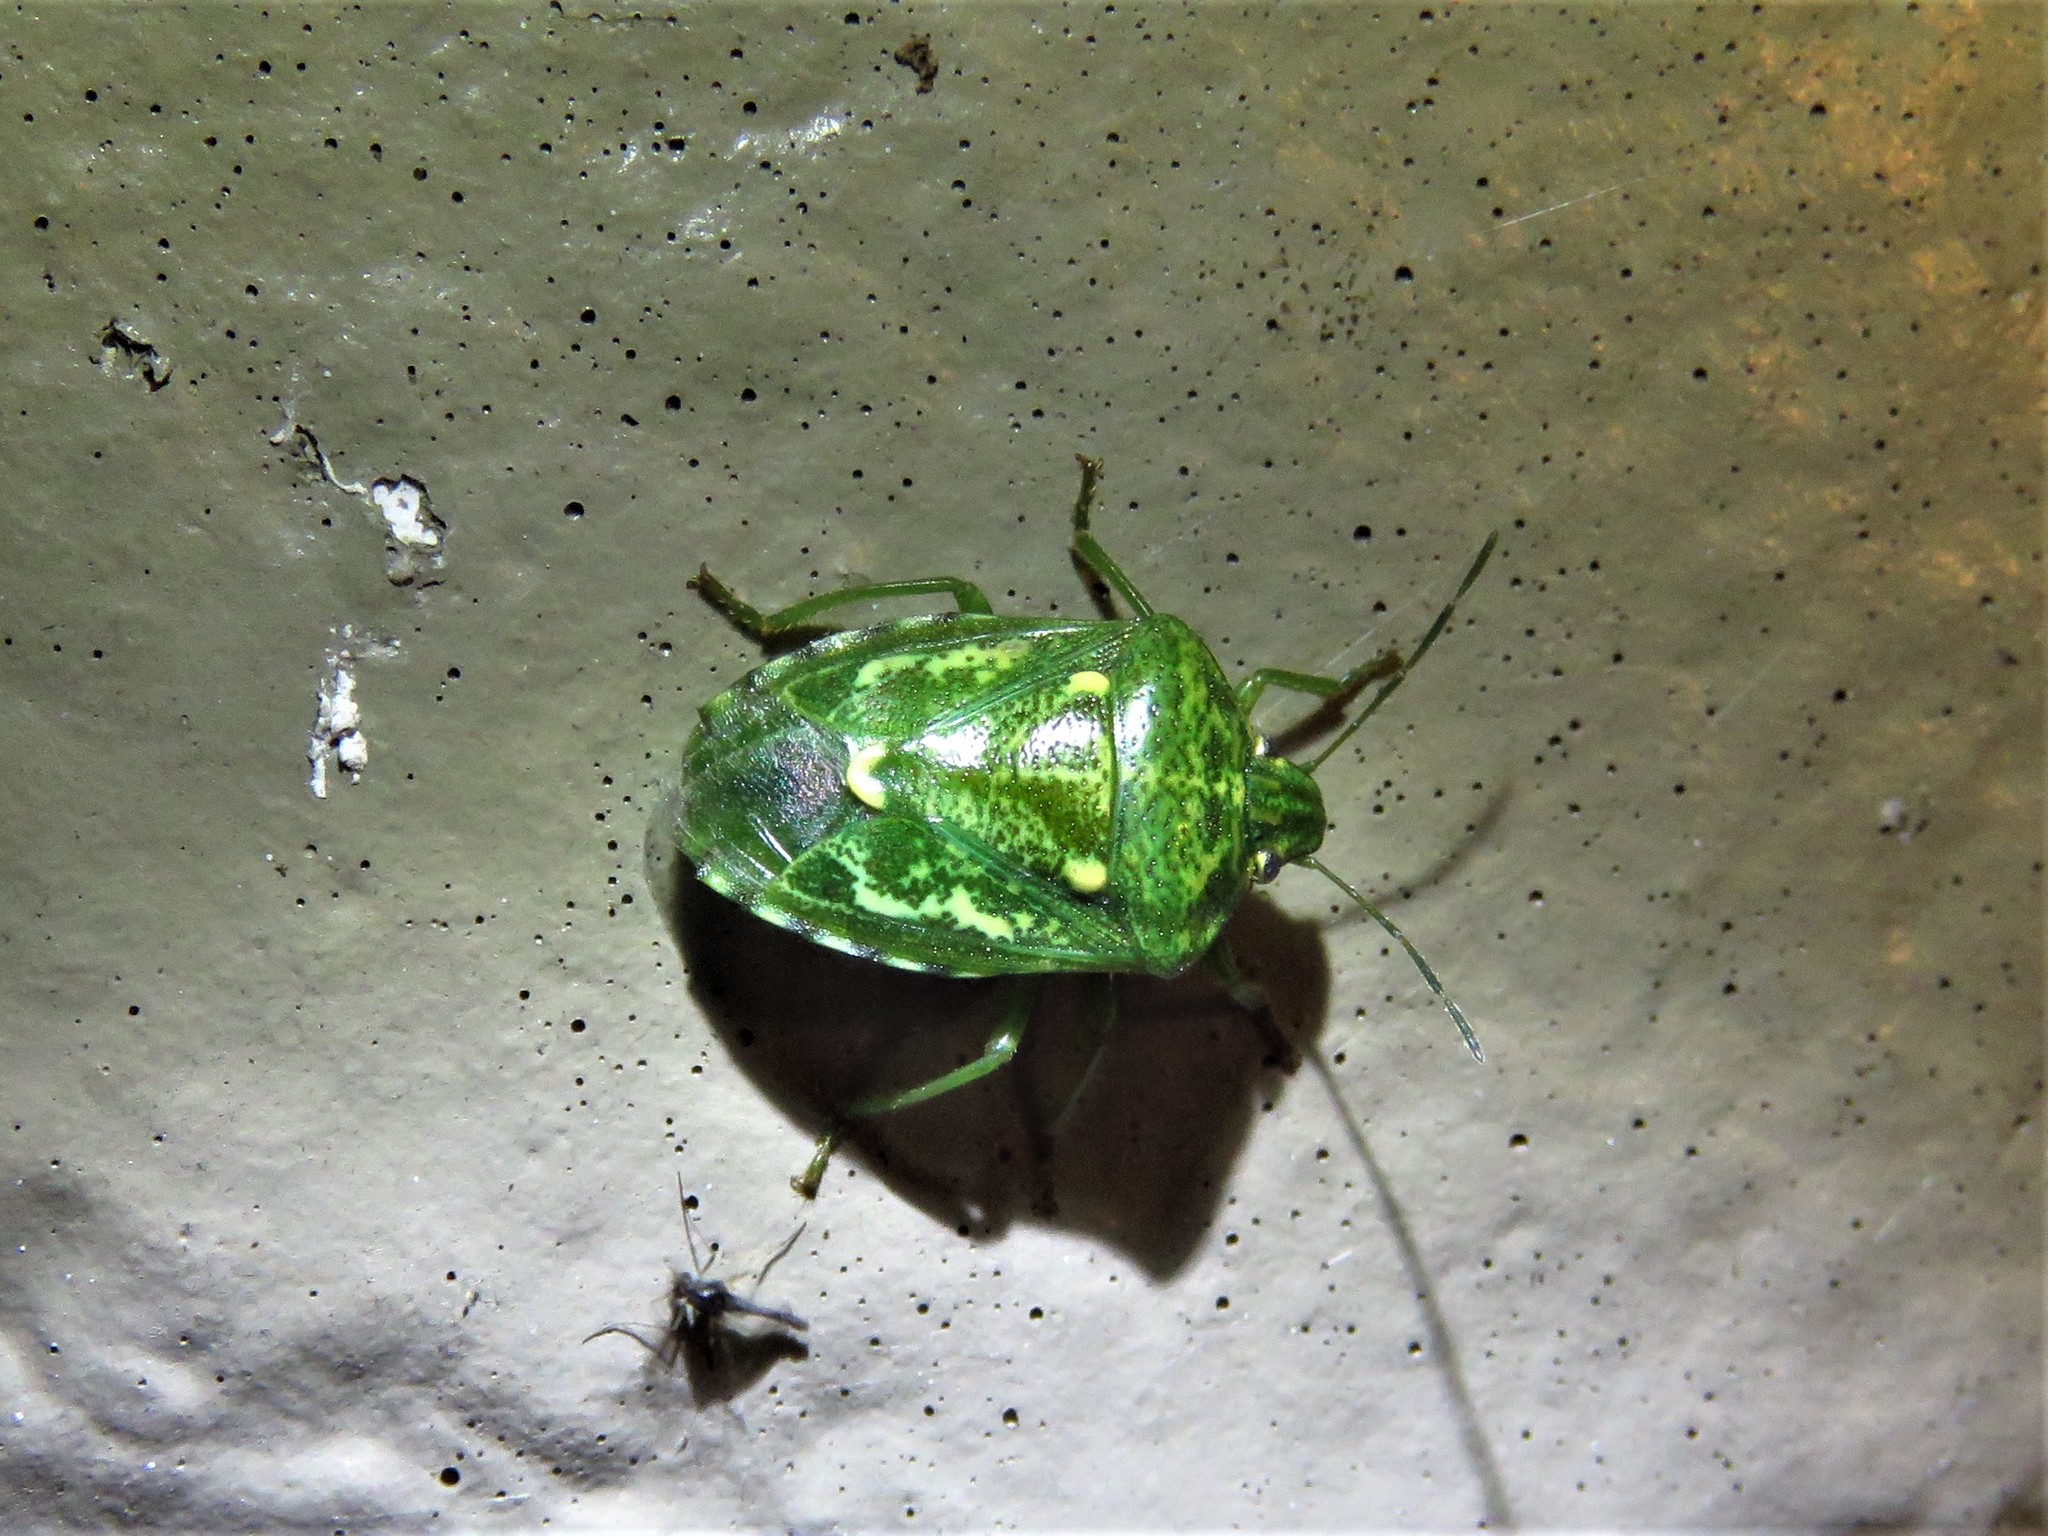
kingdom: Animalia
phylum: Arthropoda
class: Insecta
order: Hemiptera
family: Pentatomidae
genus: Banasa
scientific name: Banasa euchlora
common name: Cedar berry bug
